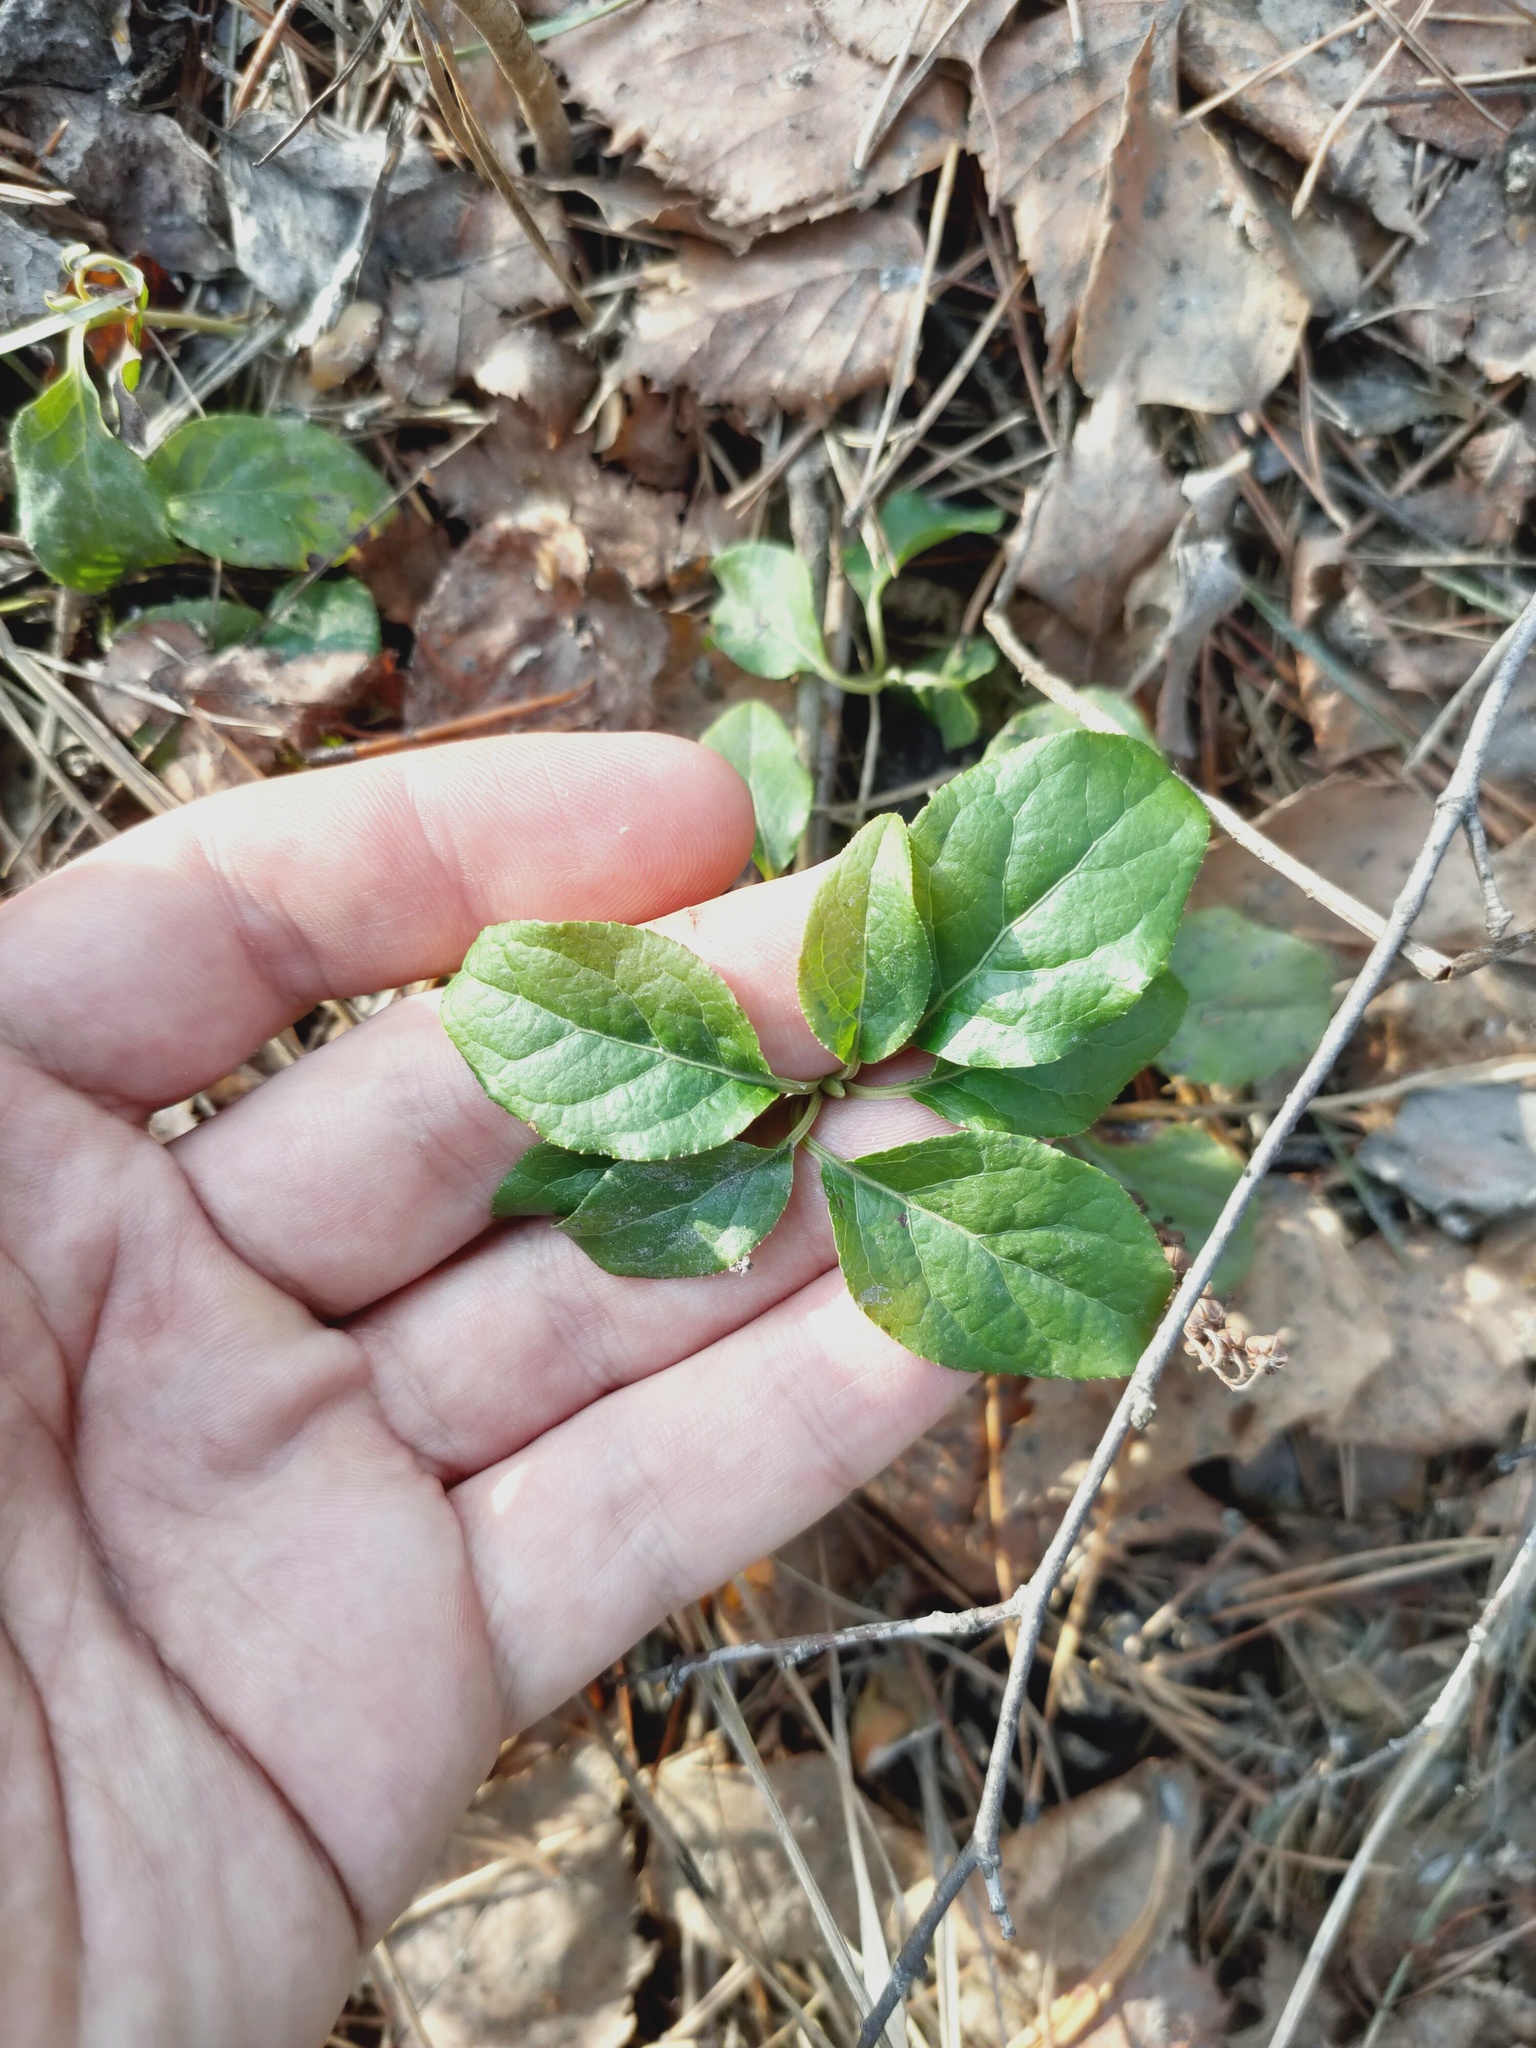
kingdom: Plantae
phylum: Tracheophyta
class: Magnoliopsida
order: Ericales
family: Ericaceae
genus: Orthilia
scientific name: Orthilia secunda
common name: One-sided orthilia
